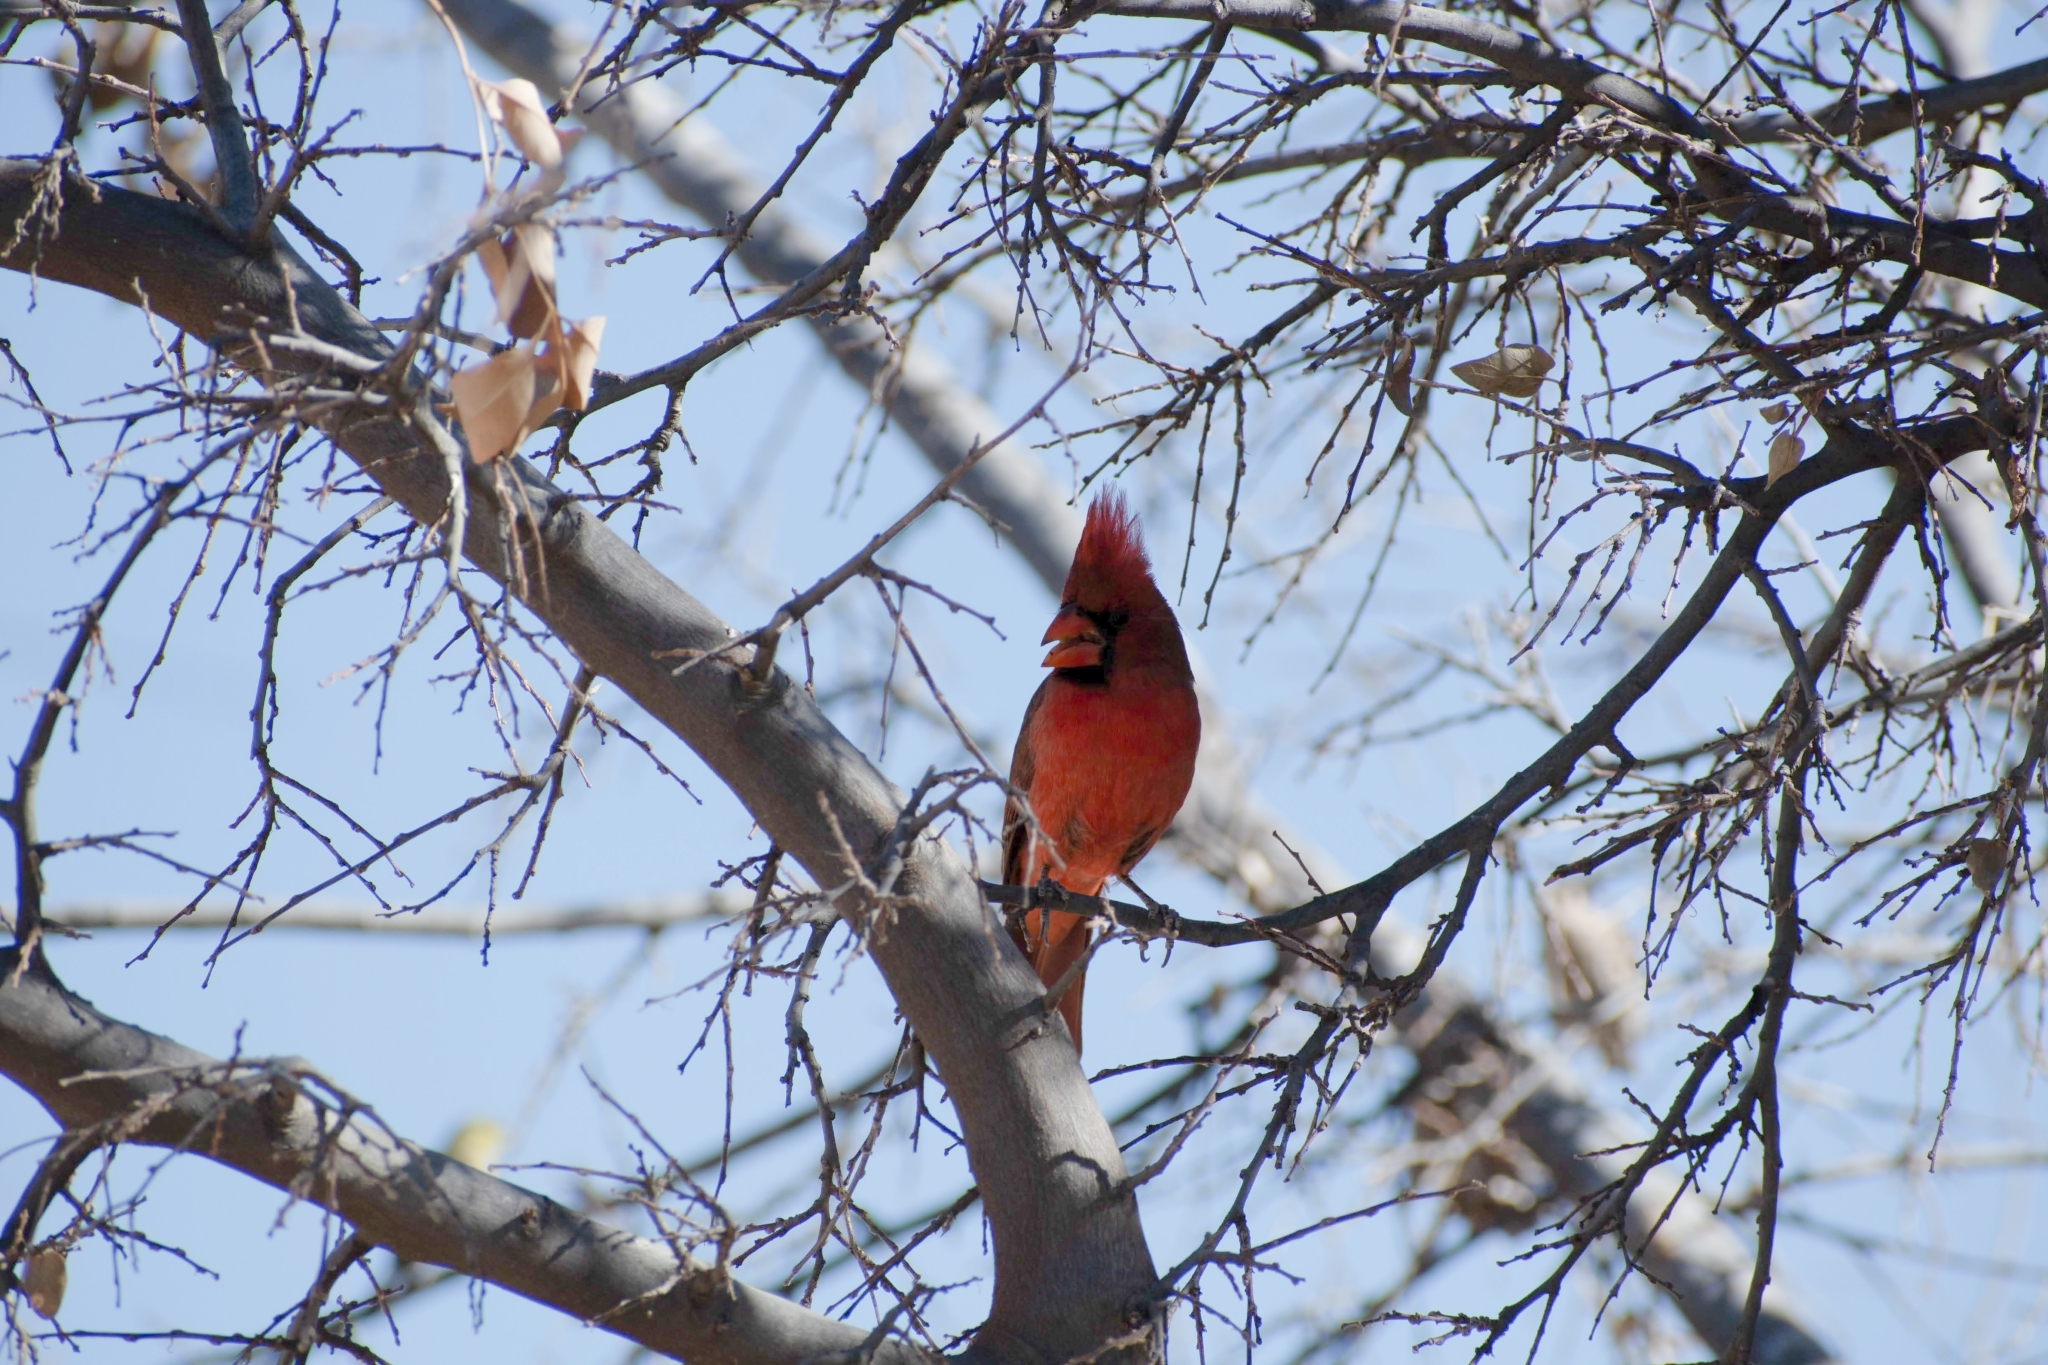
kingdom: Animalia
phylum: Chordata
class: Aves
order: Passeriformes
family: Cardinalidae
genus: Cardinalis
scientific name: Cardinalis cardinalis
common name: Northern cardinal
